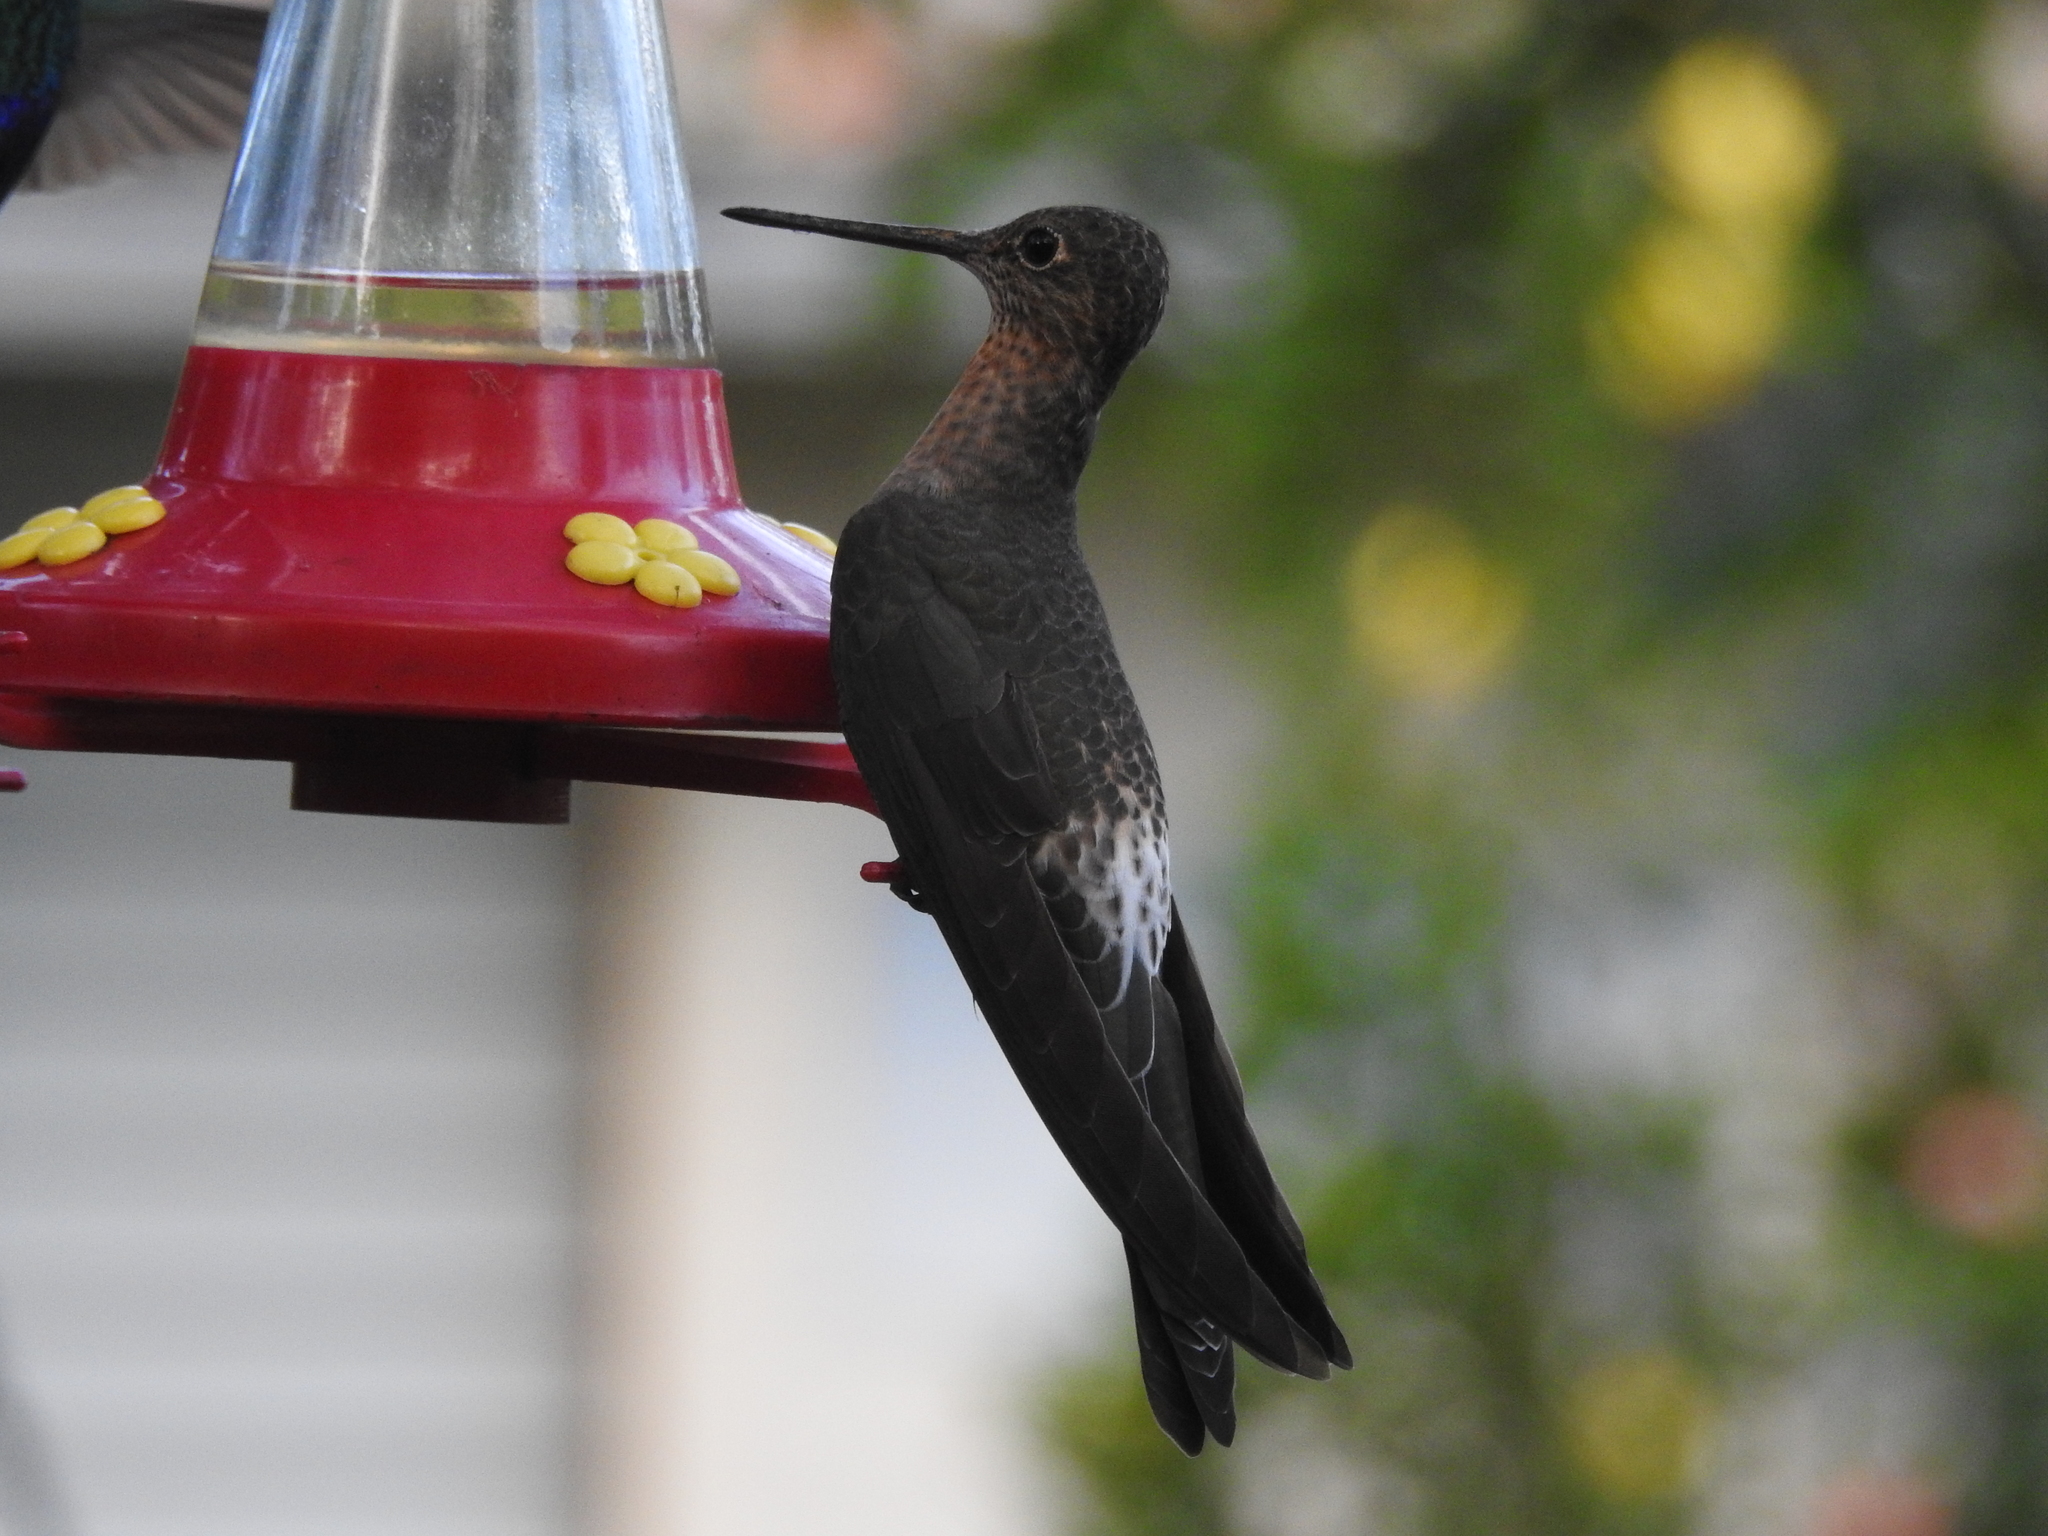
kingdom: Animalia
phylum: Chordata
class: Aves
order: Apodiformes
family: Trochilidae
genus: Patagona
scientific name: Patagona gigas
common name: Giant hummingbird
